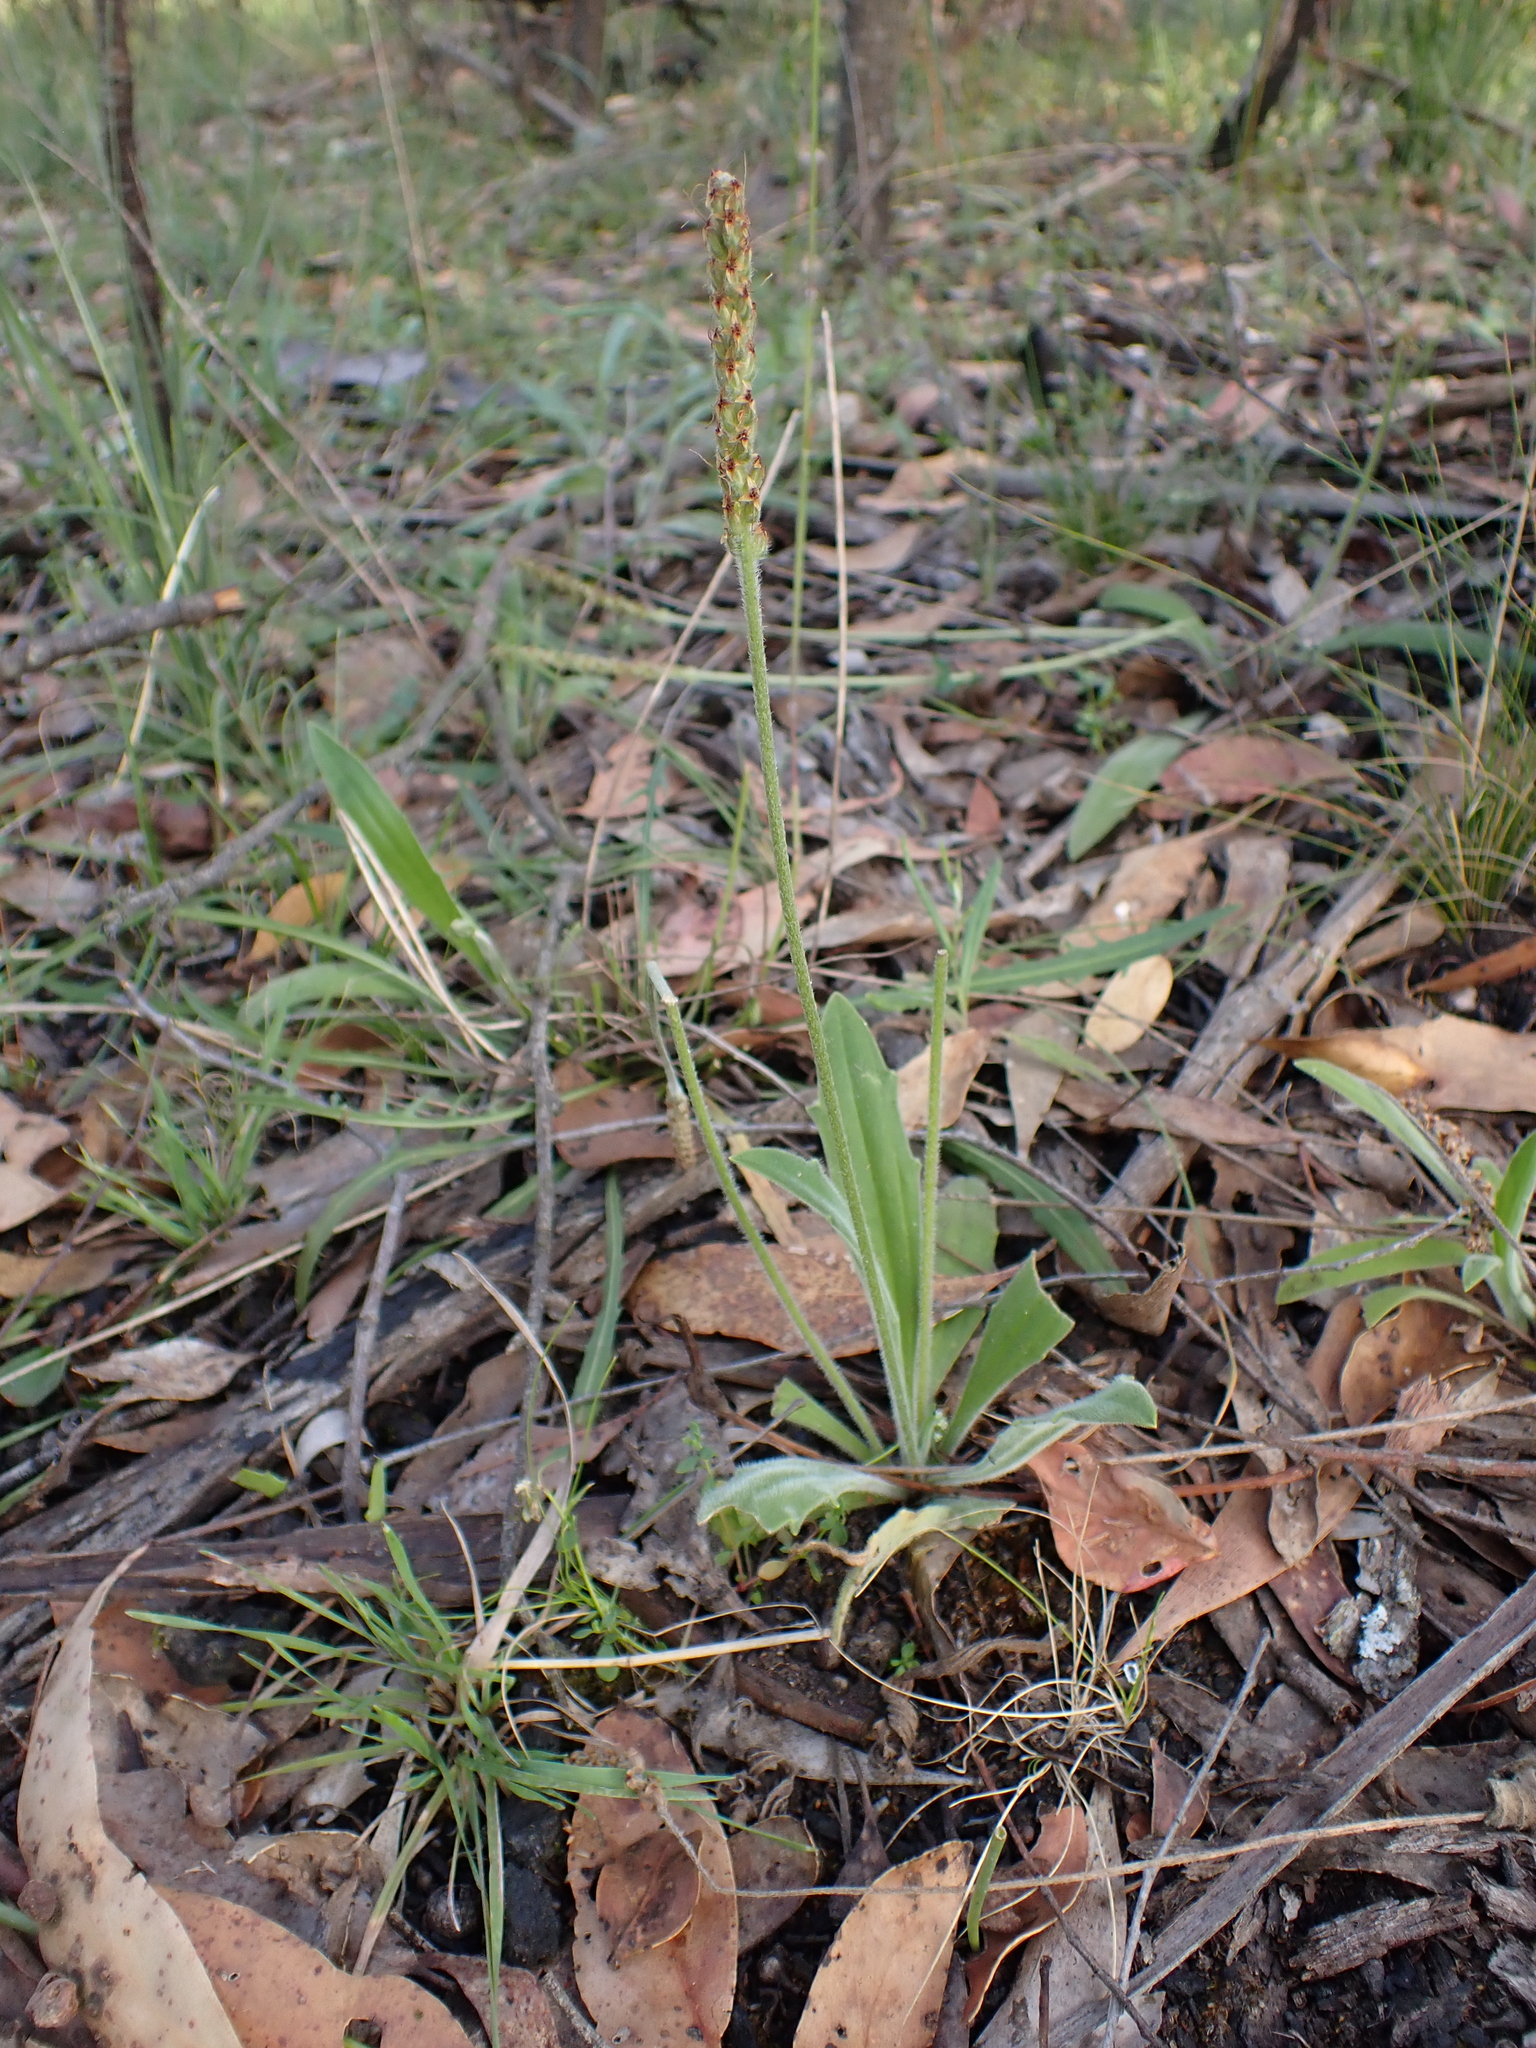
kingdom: Plantae
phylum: Tracheophyta
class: Magnoliopsida
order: Lamiales
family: Plantaginaceae
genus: Plantago
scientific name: Plantago varia
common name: Variable plantain
